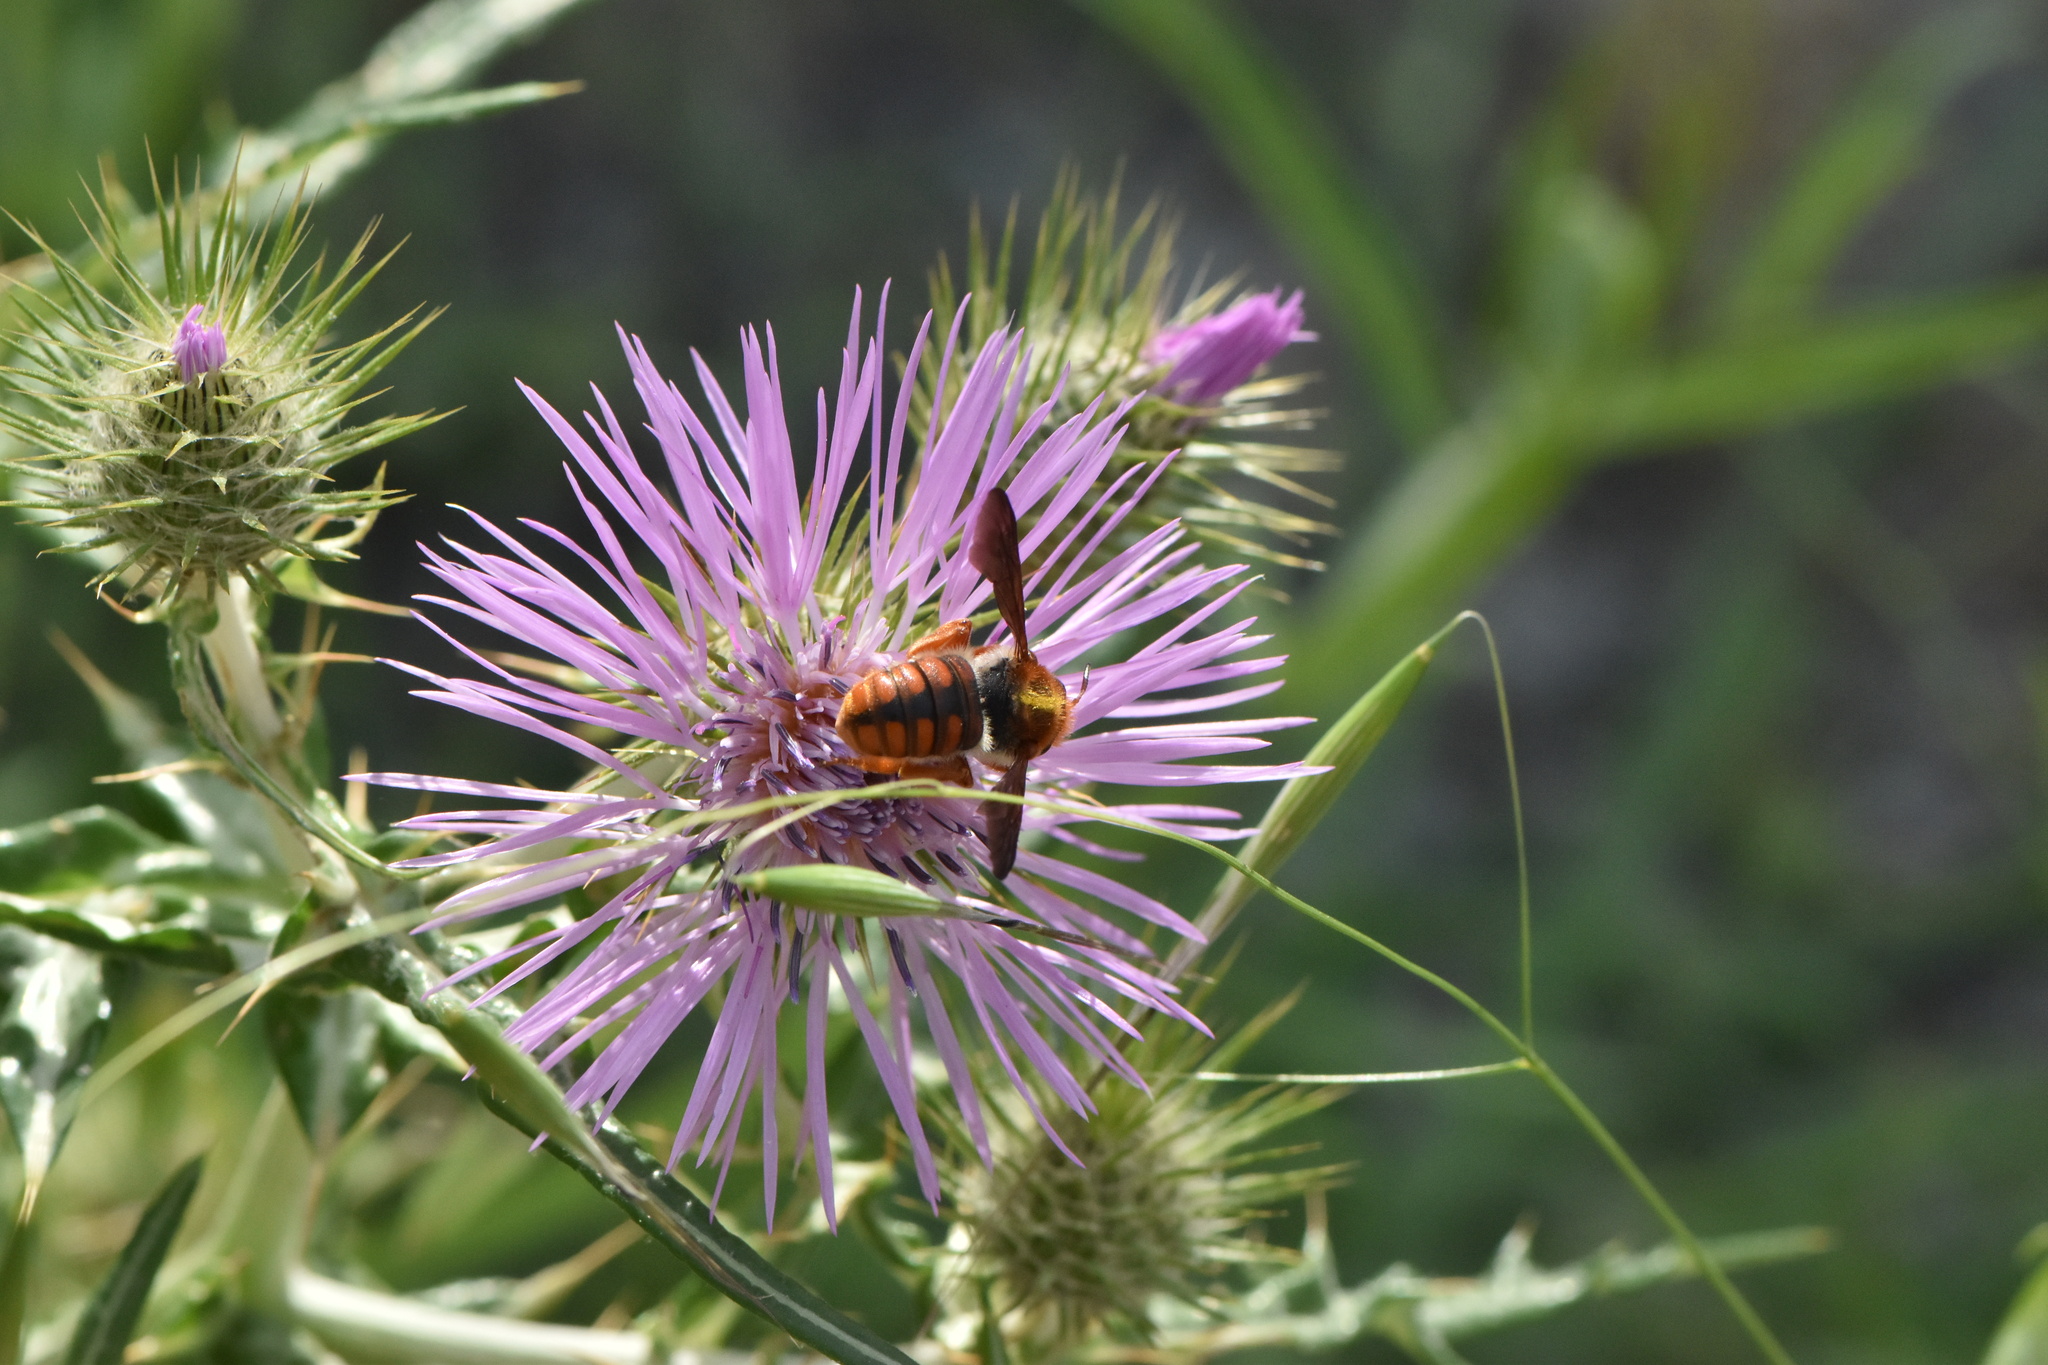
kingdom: Animalia
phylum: Arthropoda
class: Insecta
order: Hymenoptera
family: Megachilidae
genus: Rhodanthidium
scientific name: Rhodanthidium sticticum
